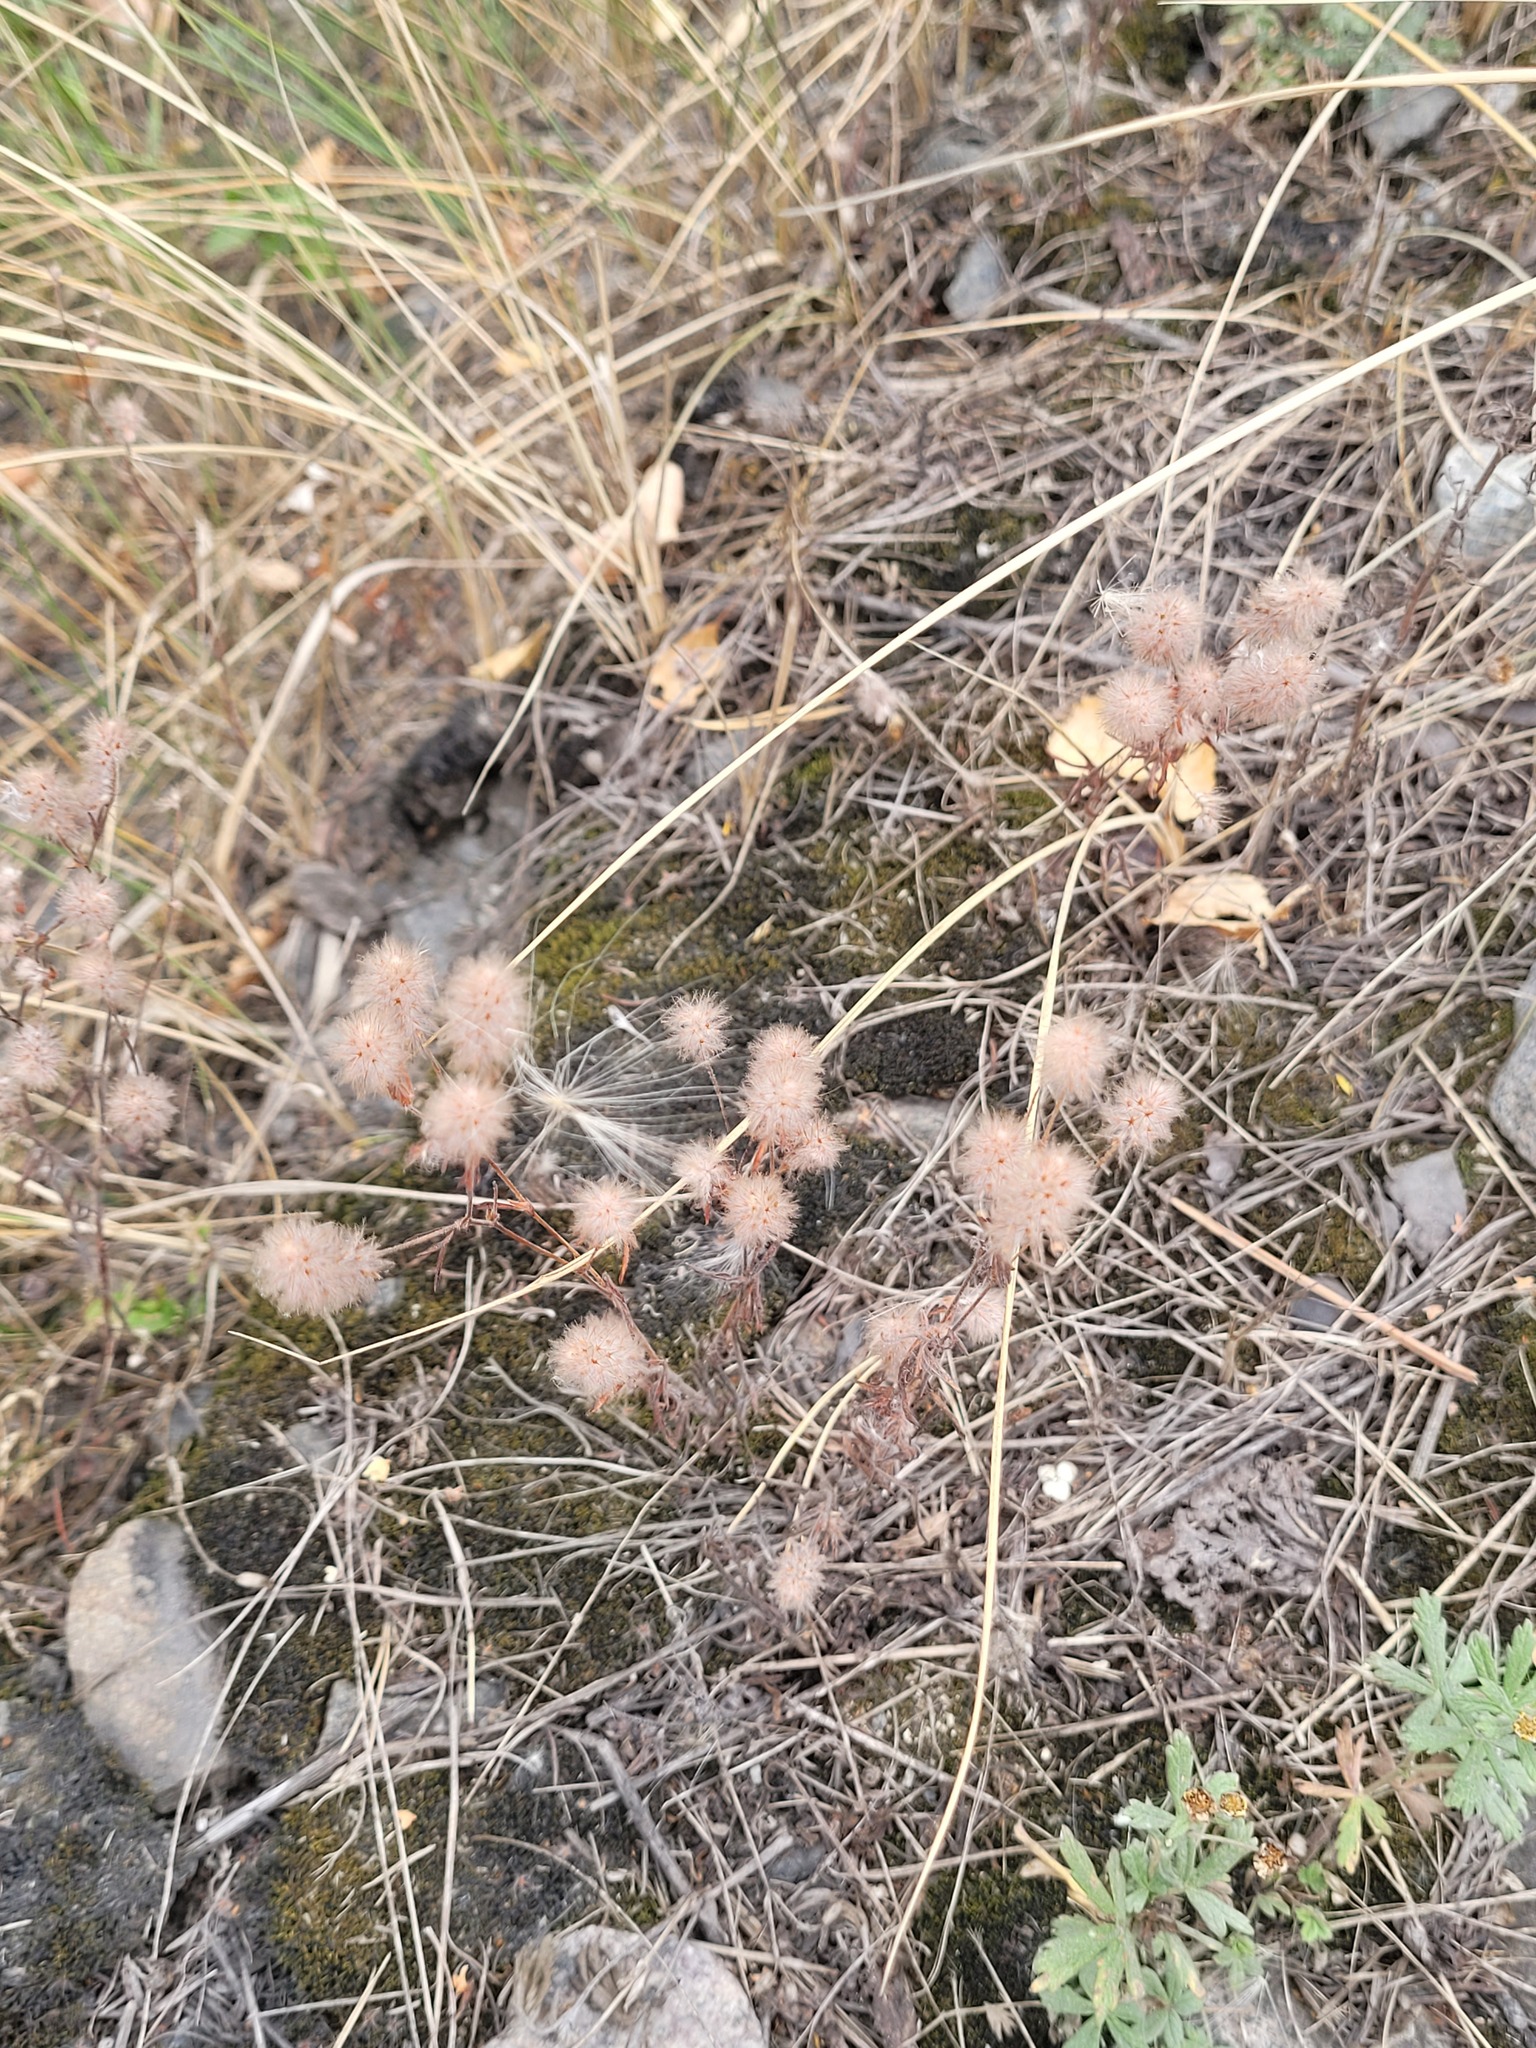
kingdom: Plantae
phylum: Tracheophyta
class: Magnoliopsida
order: Fabales
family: Fabaceae
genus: Trifolium
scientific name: Trifolium arvense
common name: Hare's-foot clover
